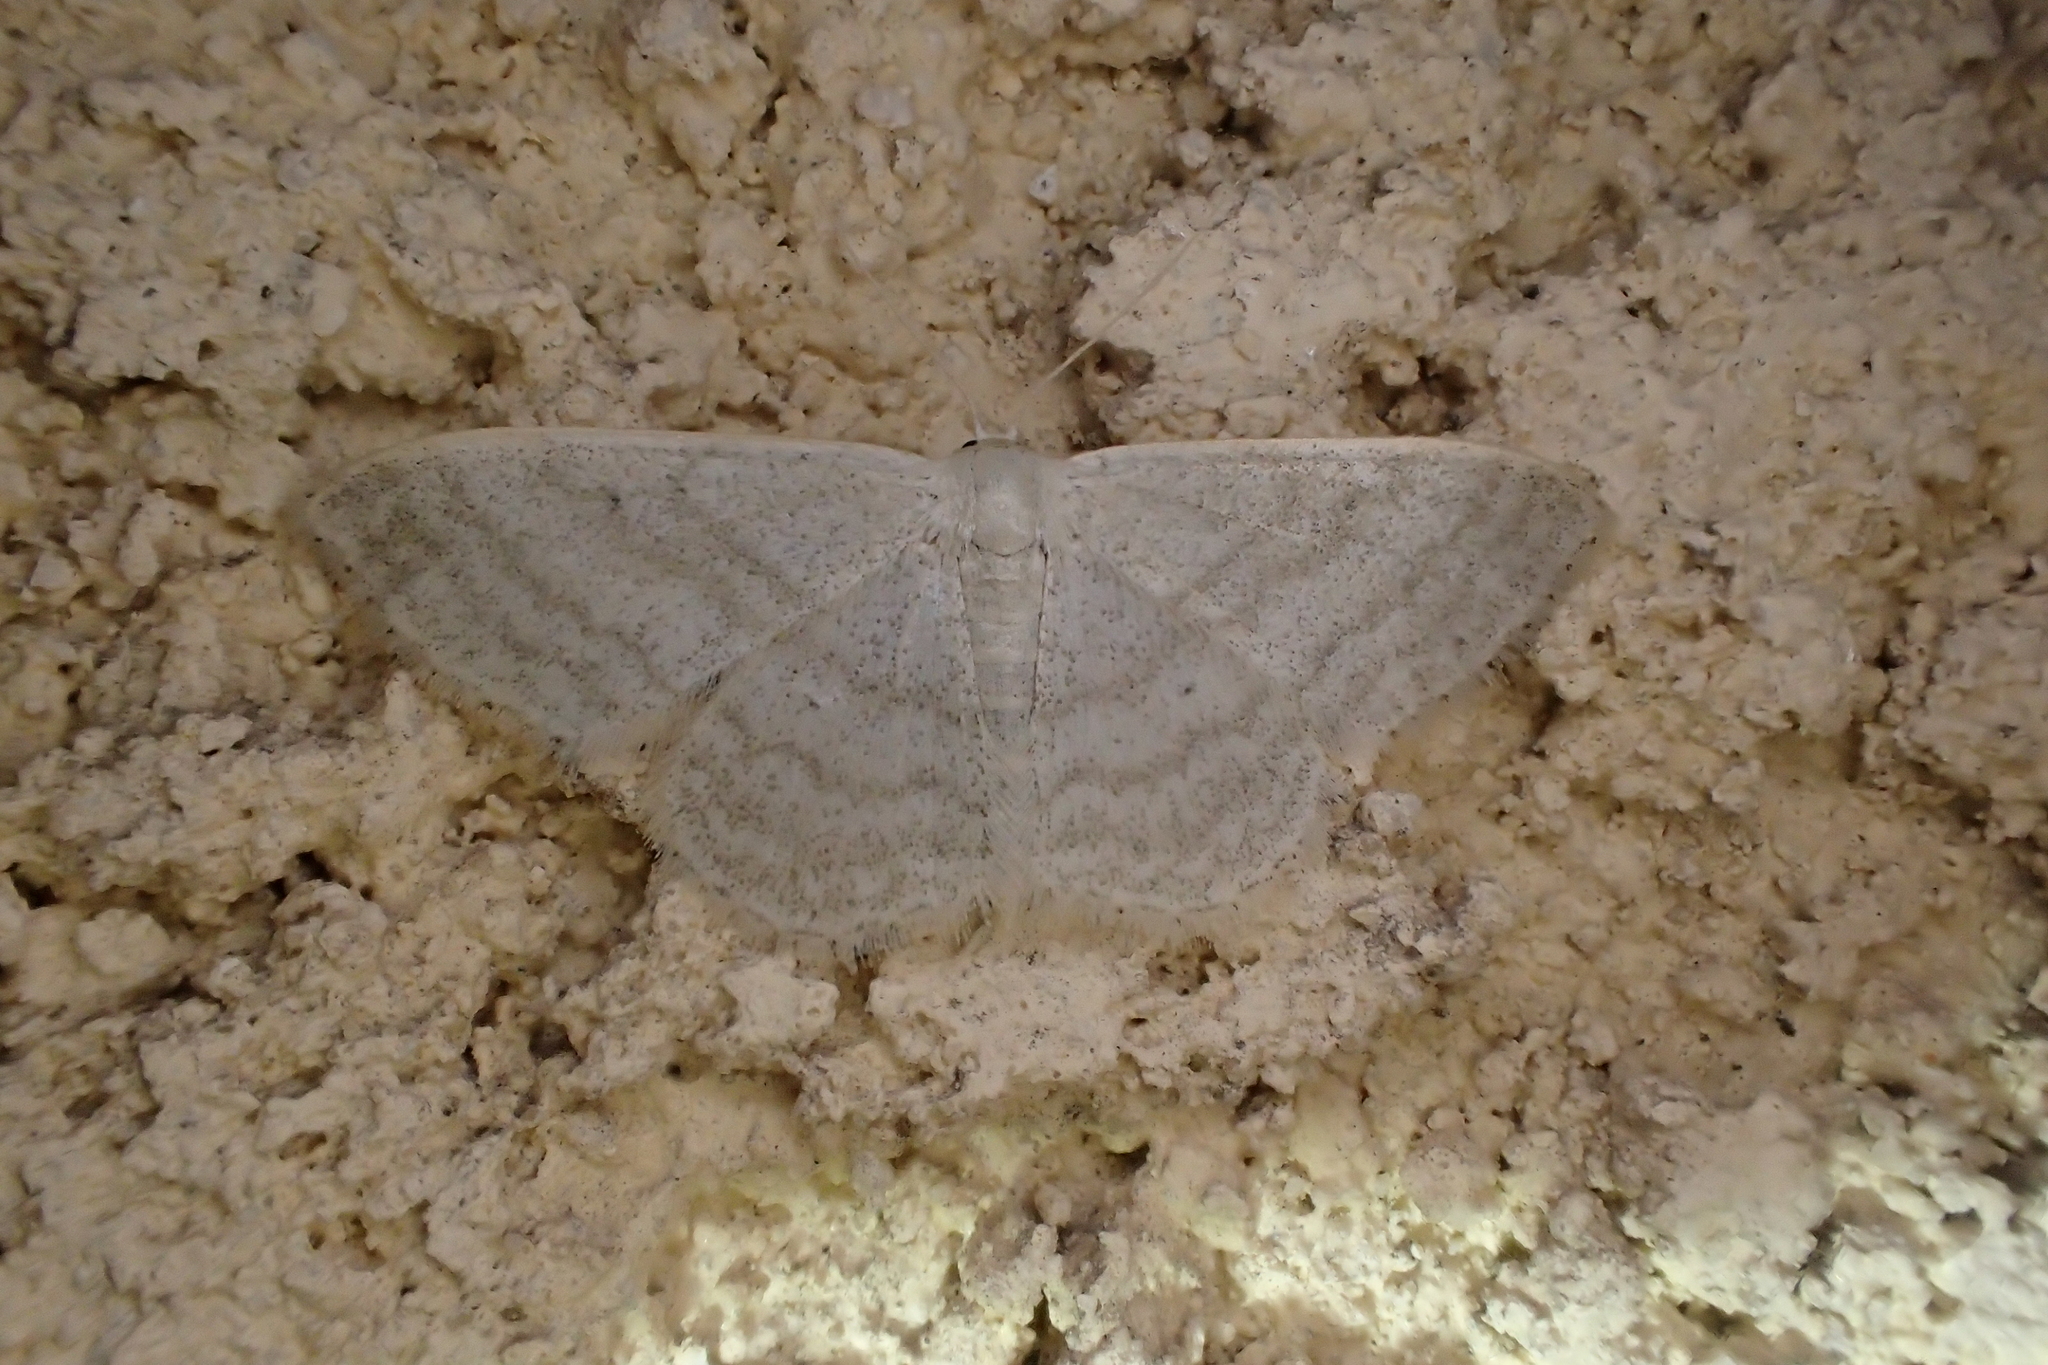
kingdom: Animalia
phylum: Arthropoda
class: Insecta
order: Lepidoptera
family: Geometridae
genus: Idaea
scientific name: Idaea subsericeata
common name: Satin wave
